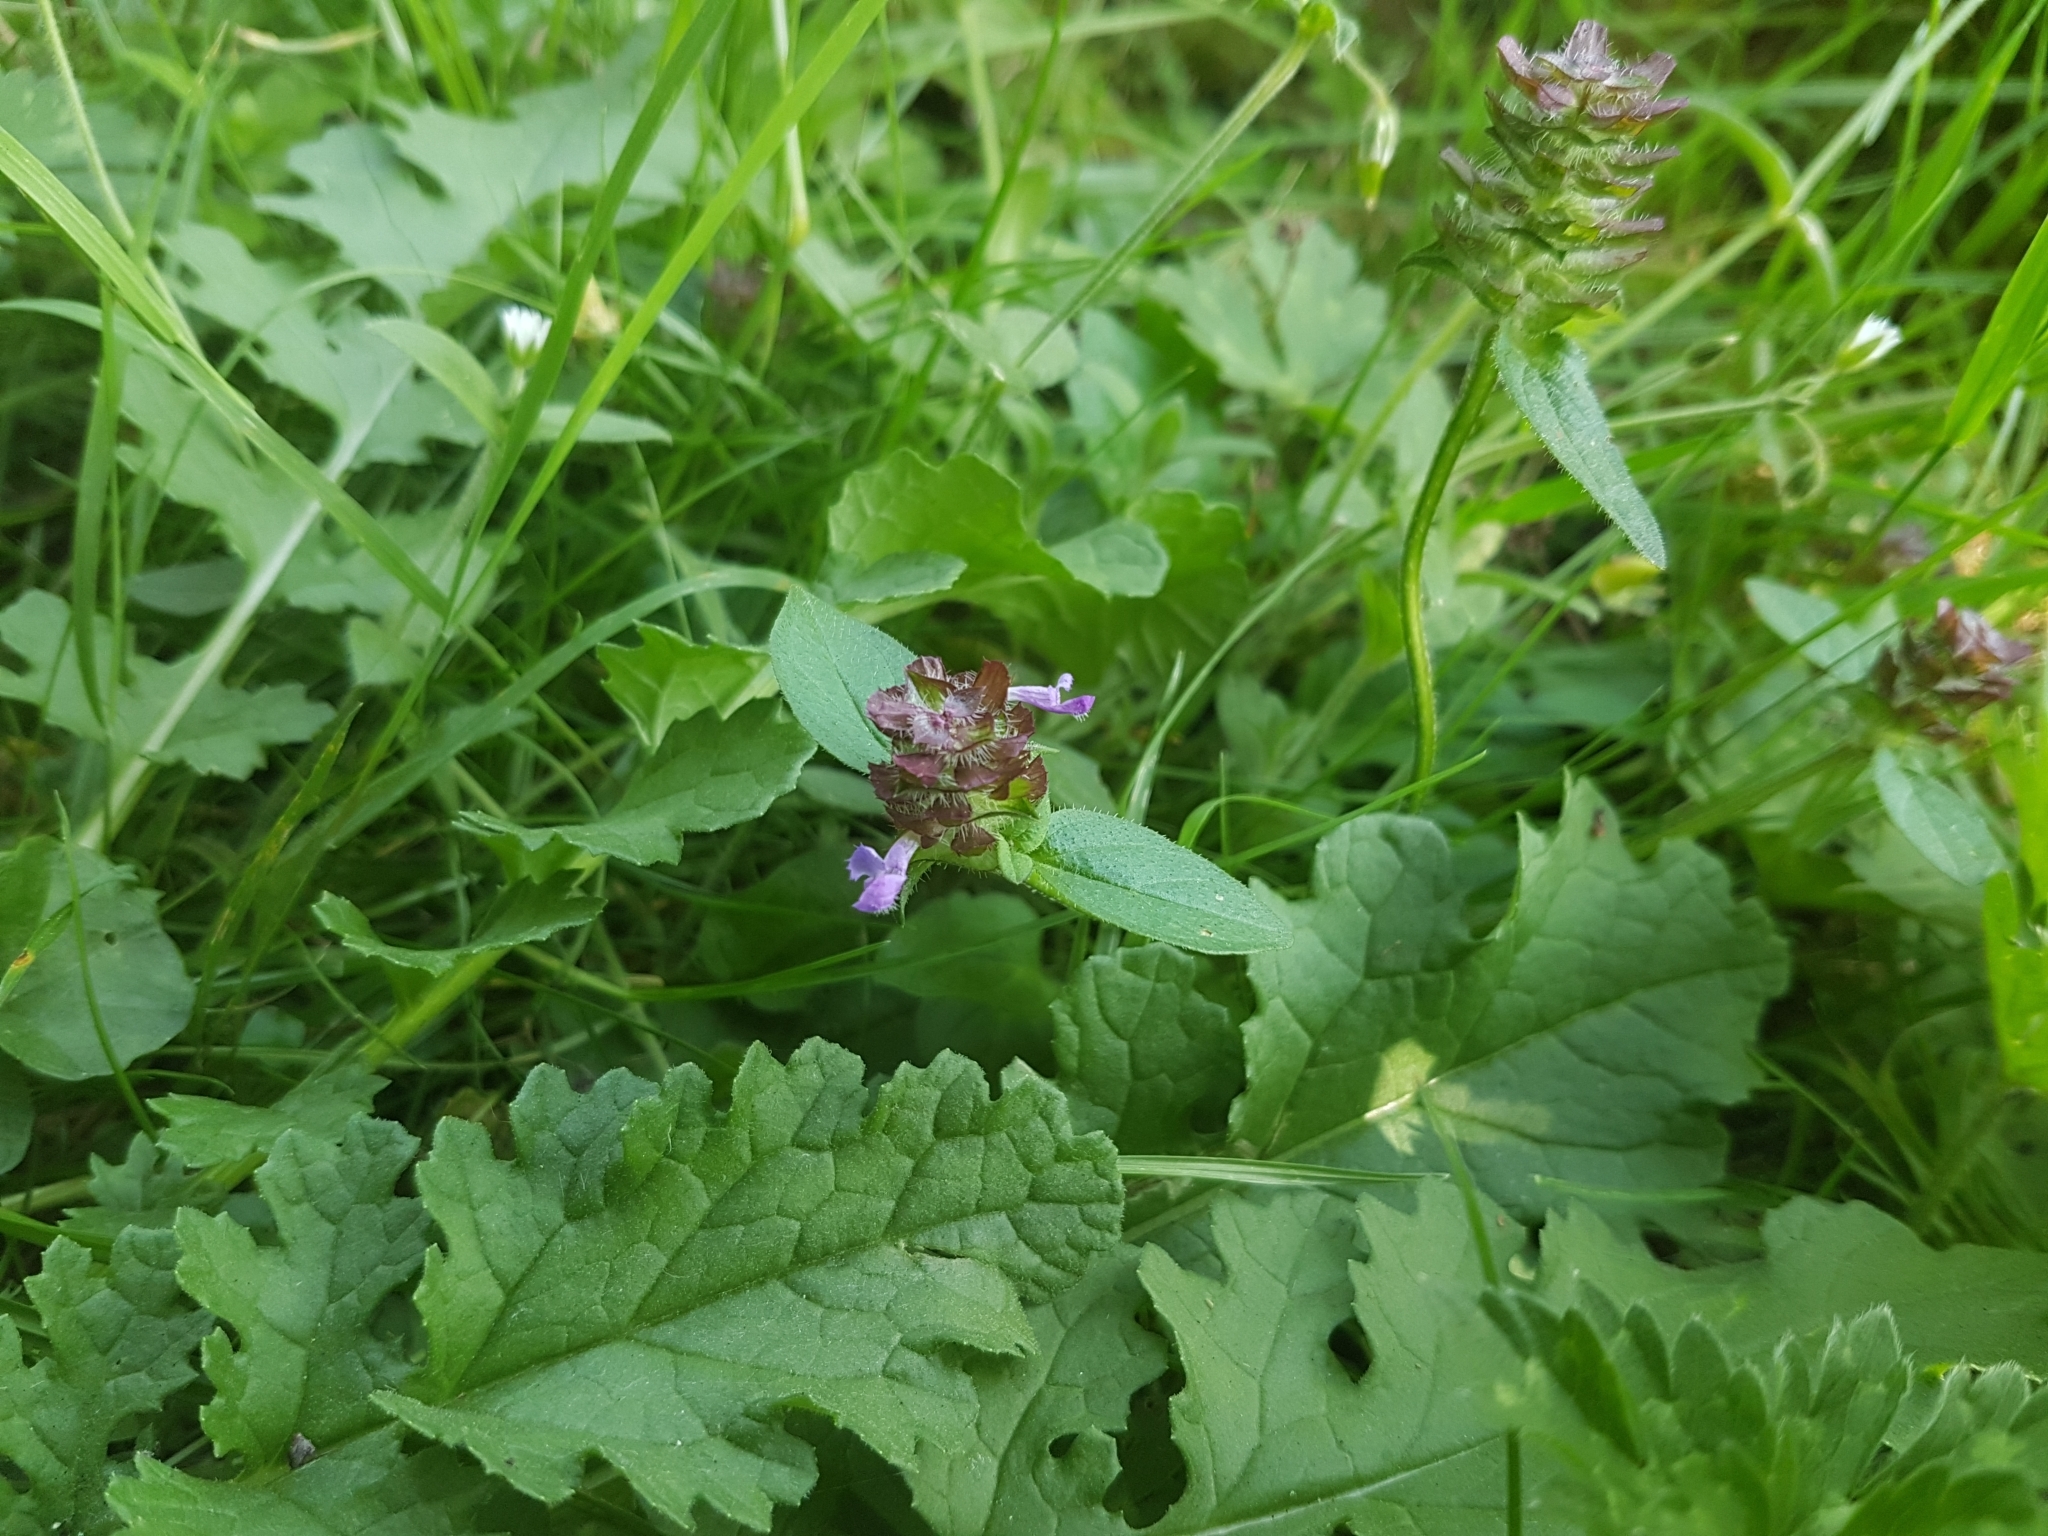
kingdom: Plantae
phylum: Tracheophyta
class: Magnoliopsida
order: Lamiales
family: Lamiaceae
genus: Prunella
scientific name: Prunella vulgaris
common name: Heal-all
